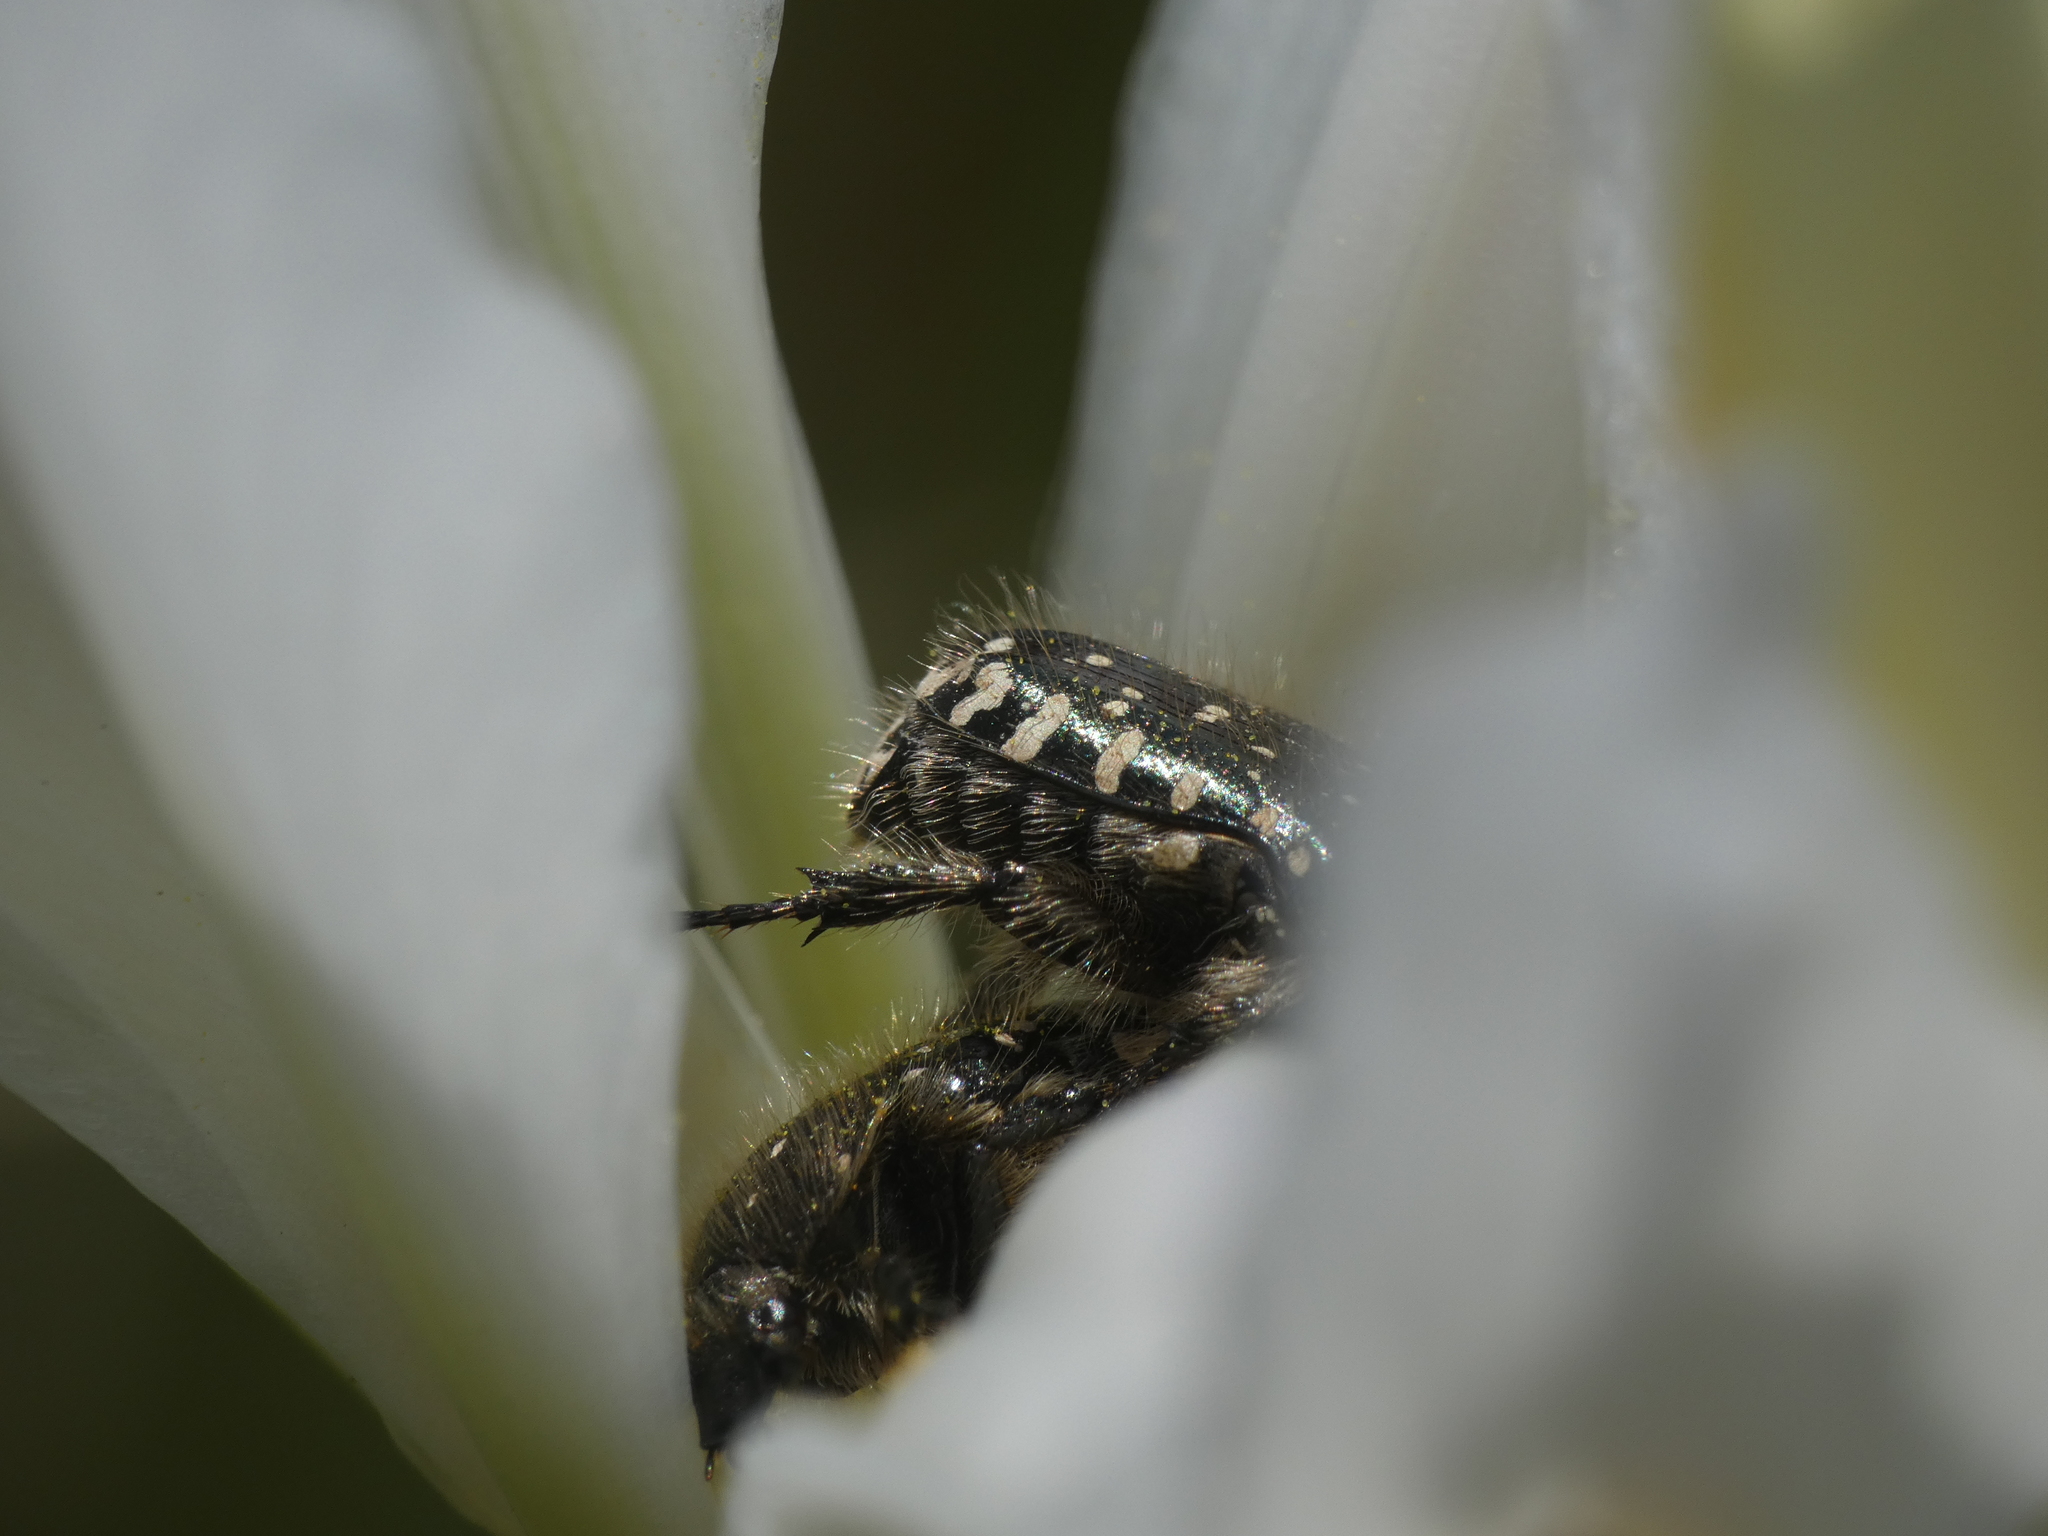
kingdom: Animalia
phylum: Arthropoda
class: Insecta
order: Coleoptera
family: Scarabaeidae
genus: Oxythyrea
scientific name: Oxythyrea funesta
